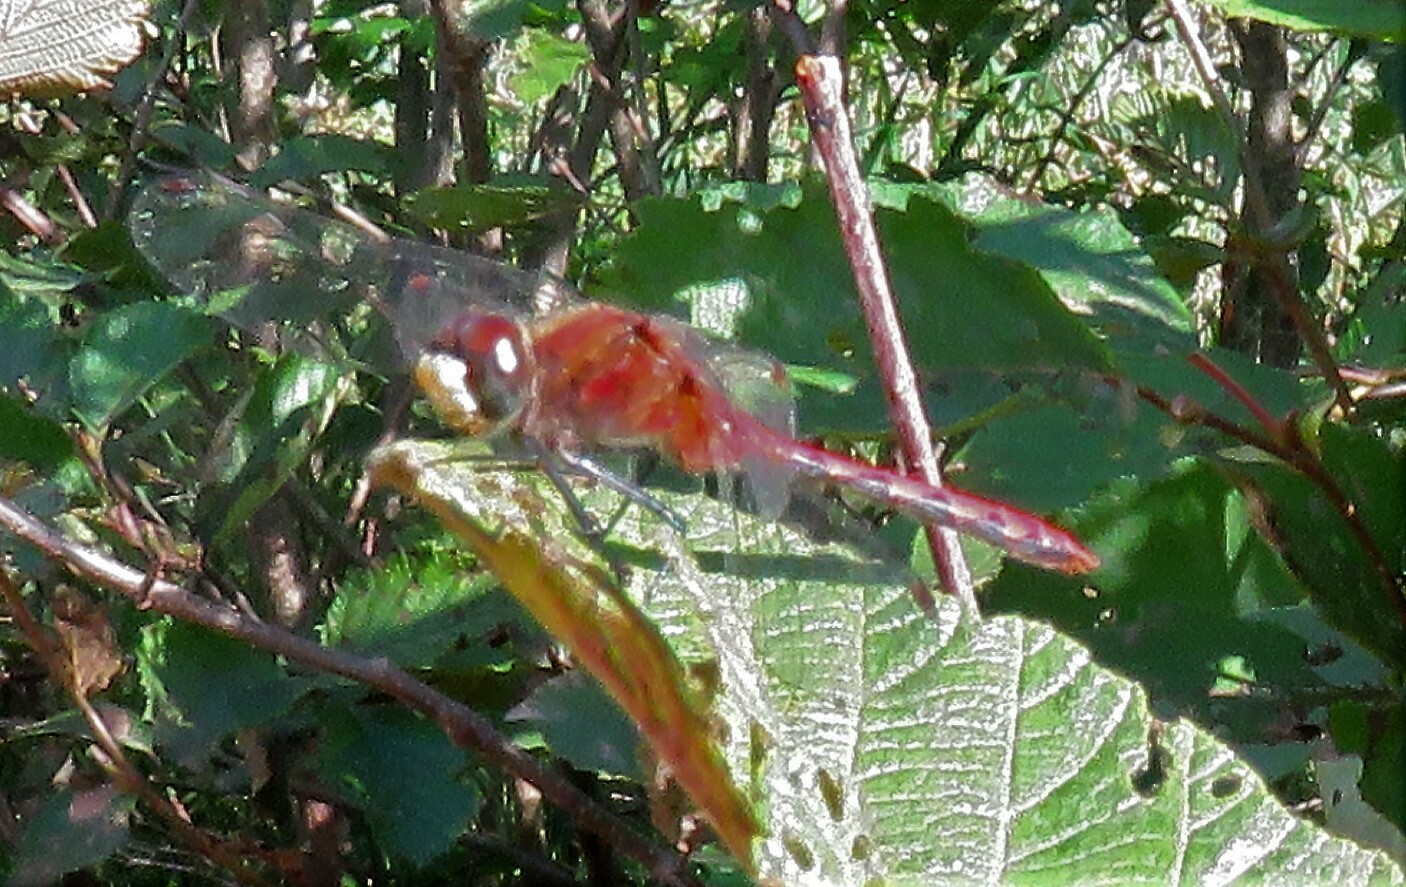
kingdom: Animalia
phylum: Arthropoda
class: Insecta
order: Odonata
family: Libellulidae
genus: Sympetrum
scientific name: Sympetrum obtrusum
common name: White-faced meadowhawk
